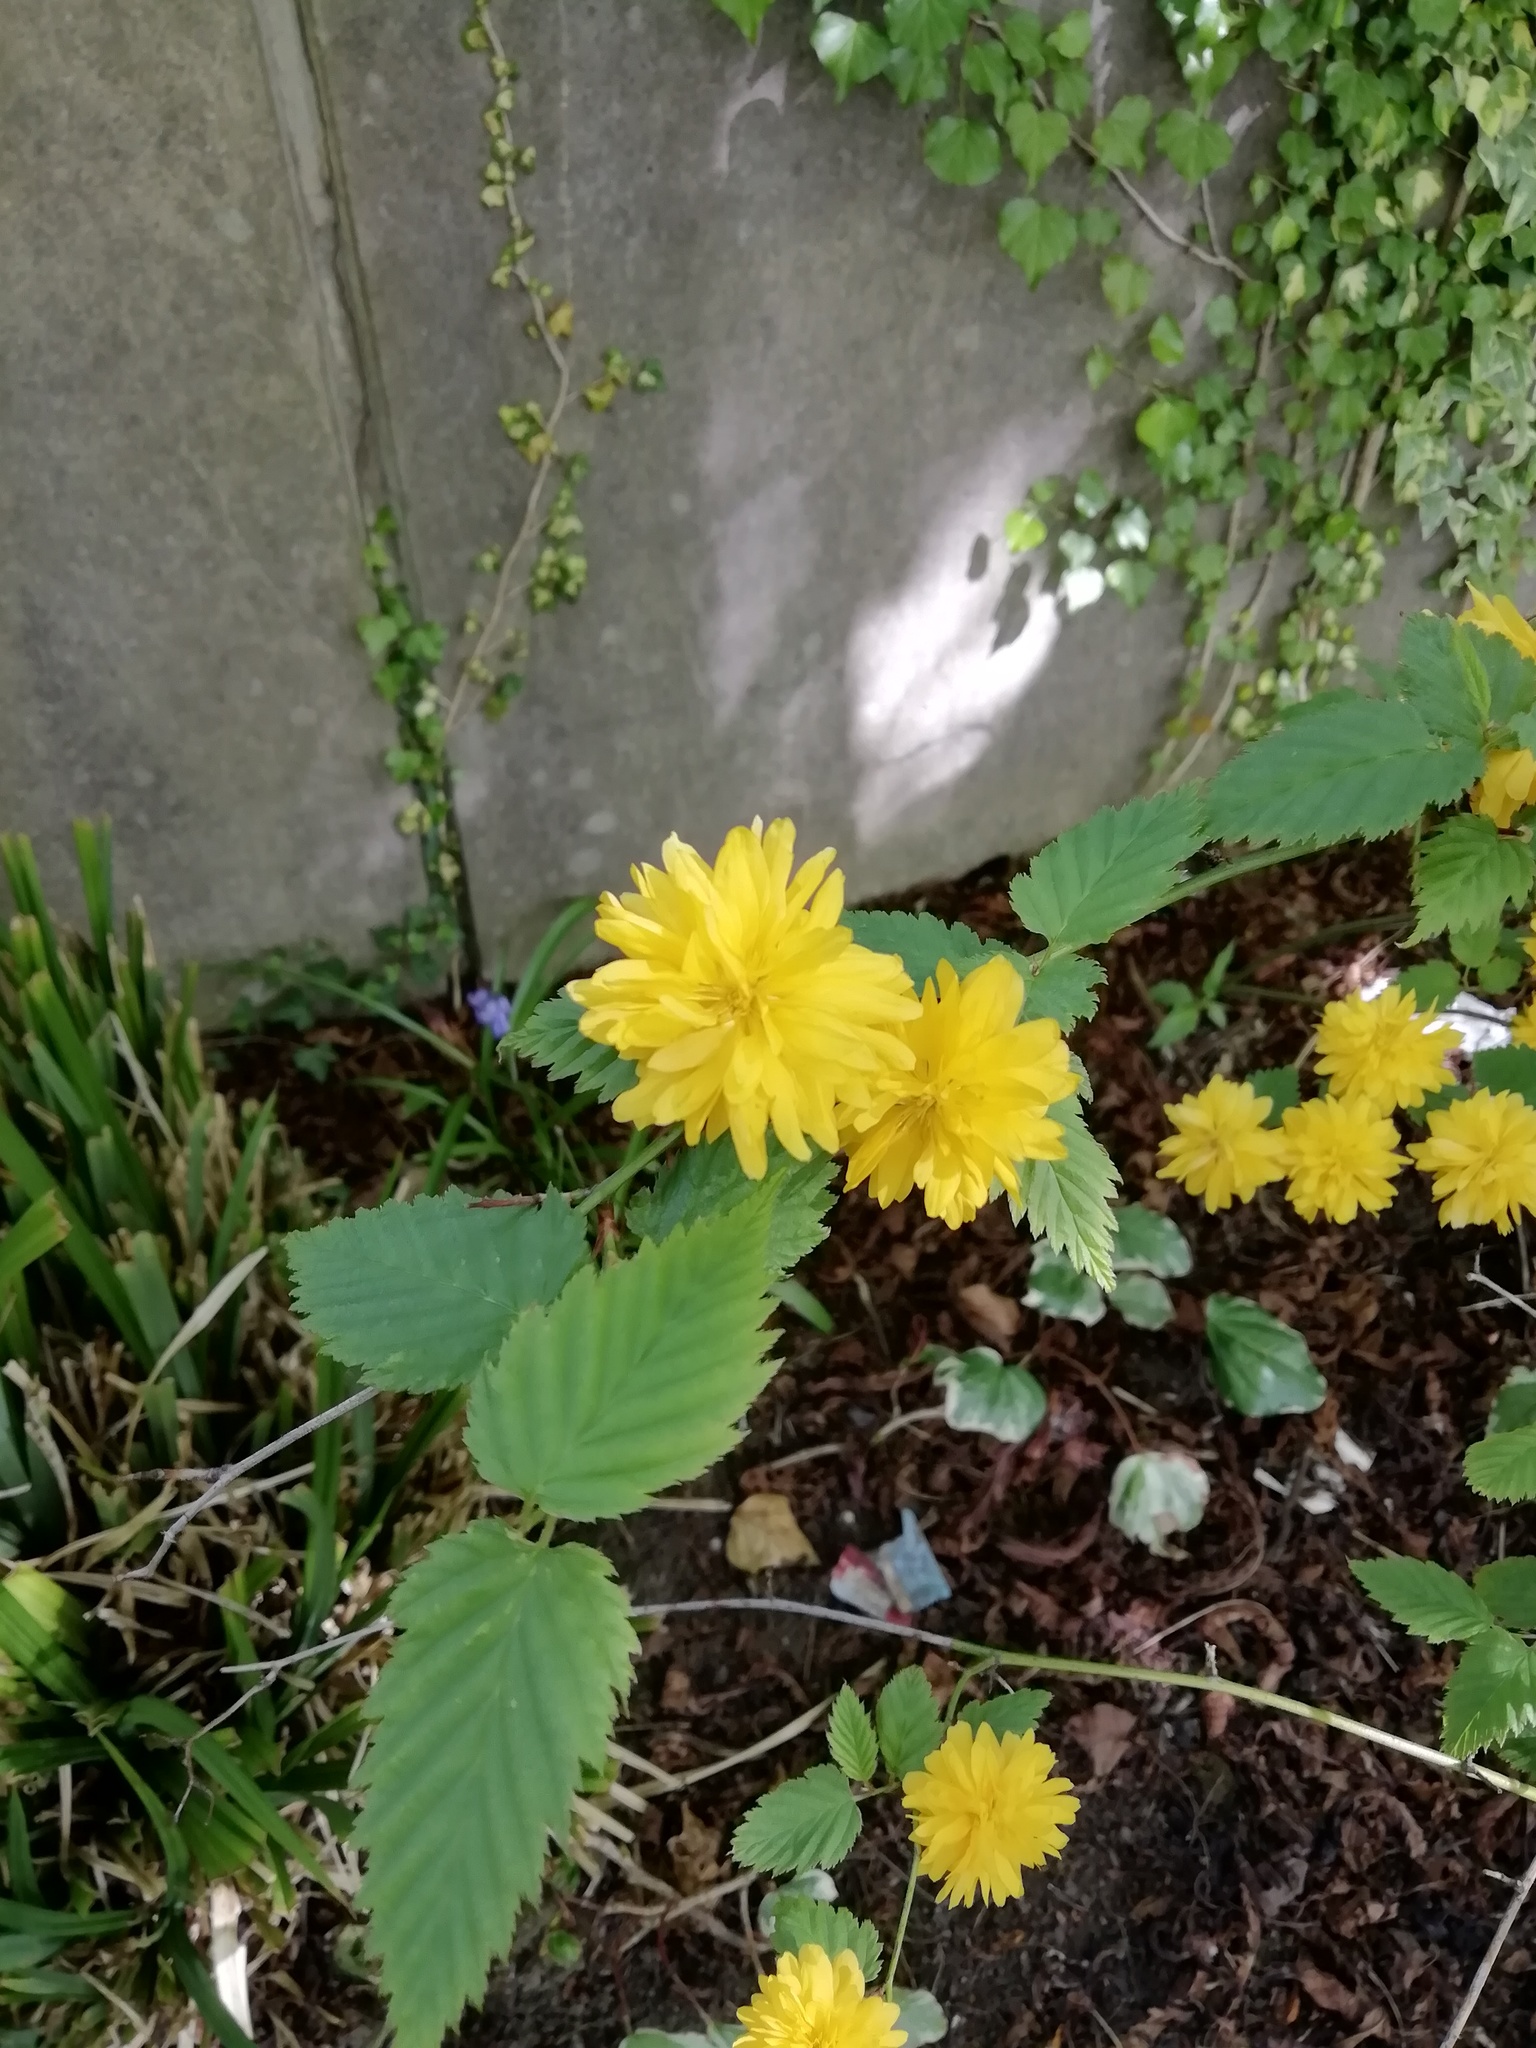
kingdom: Plantae
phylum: Tracheophyta
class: Magnoliopsida
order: Rosales
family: Rosaceae
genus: Kerria
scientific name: Kerria japonica
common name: Japanese kerria
